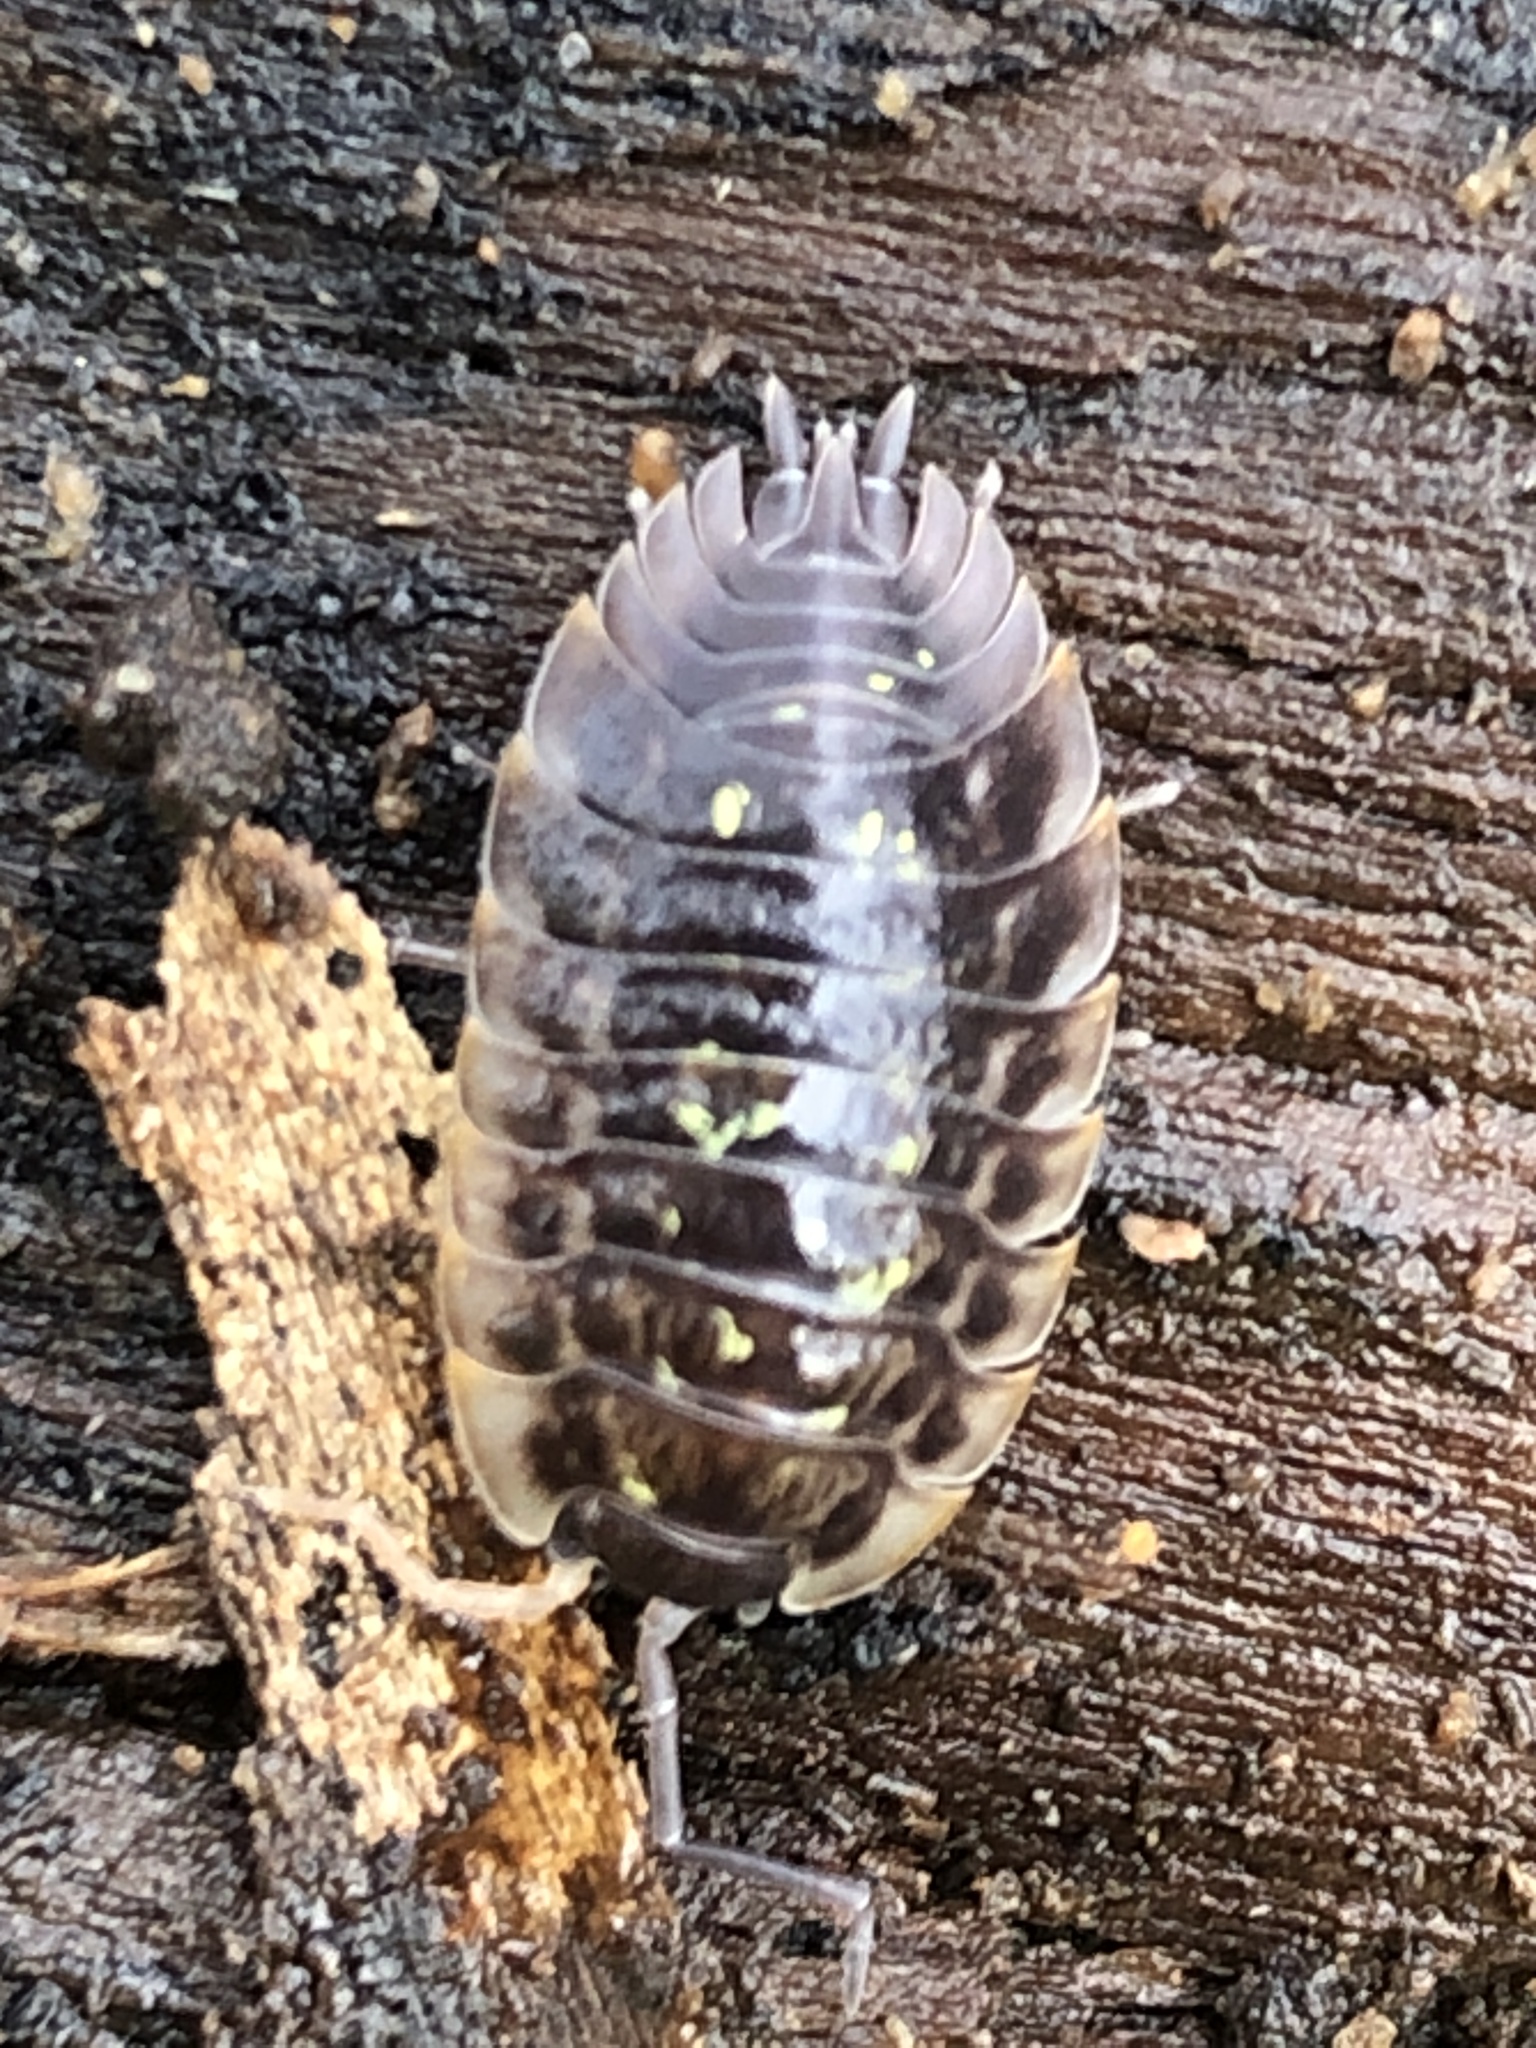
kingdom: Animalia
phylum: Arthropoda
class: Malacostraca
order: Isopoda
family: Oniscidae
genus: Oniscus
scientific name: Oniscus asellus
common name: Common shiny woodlouse
